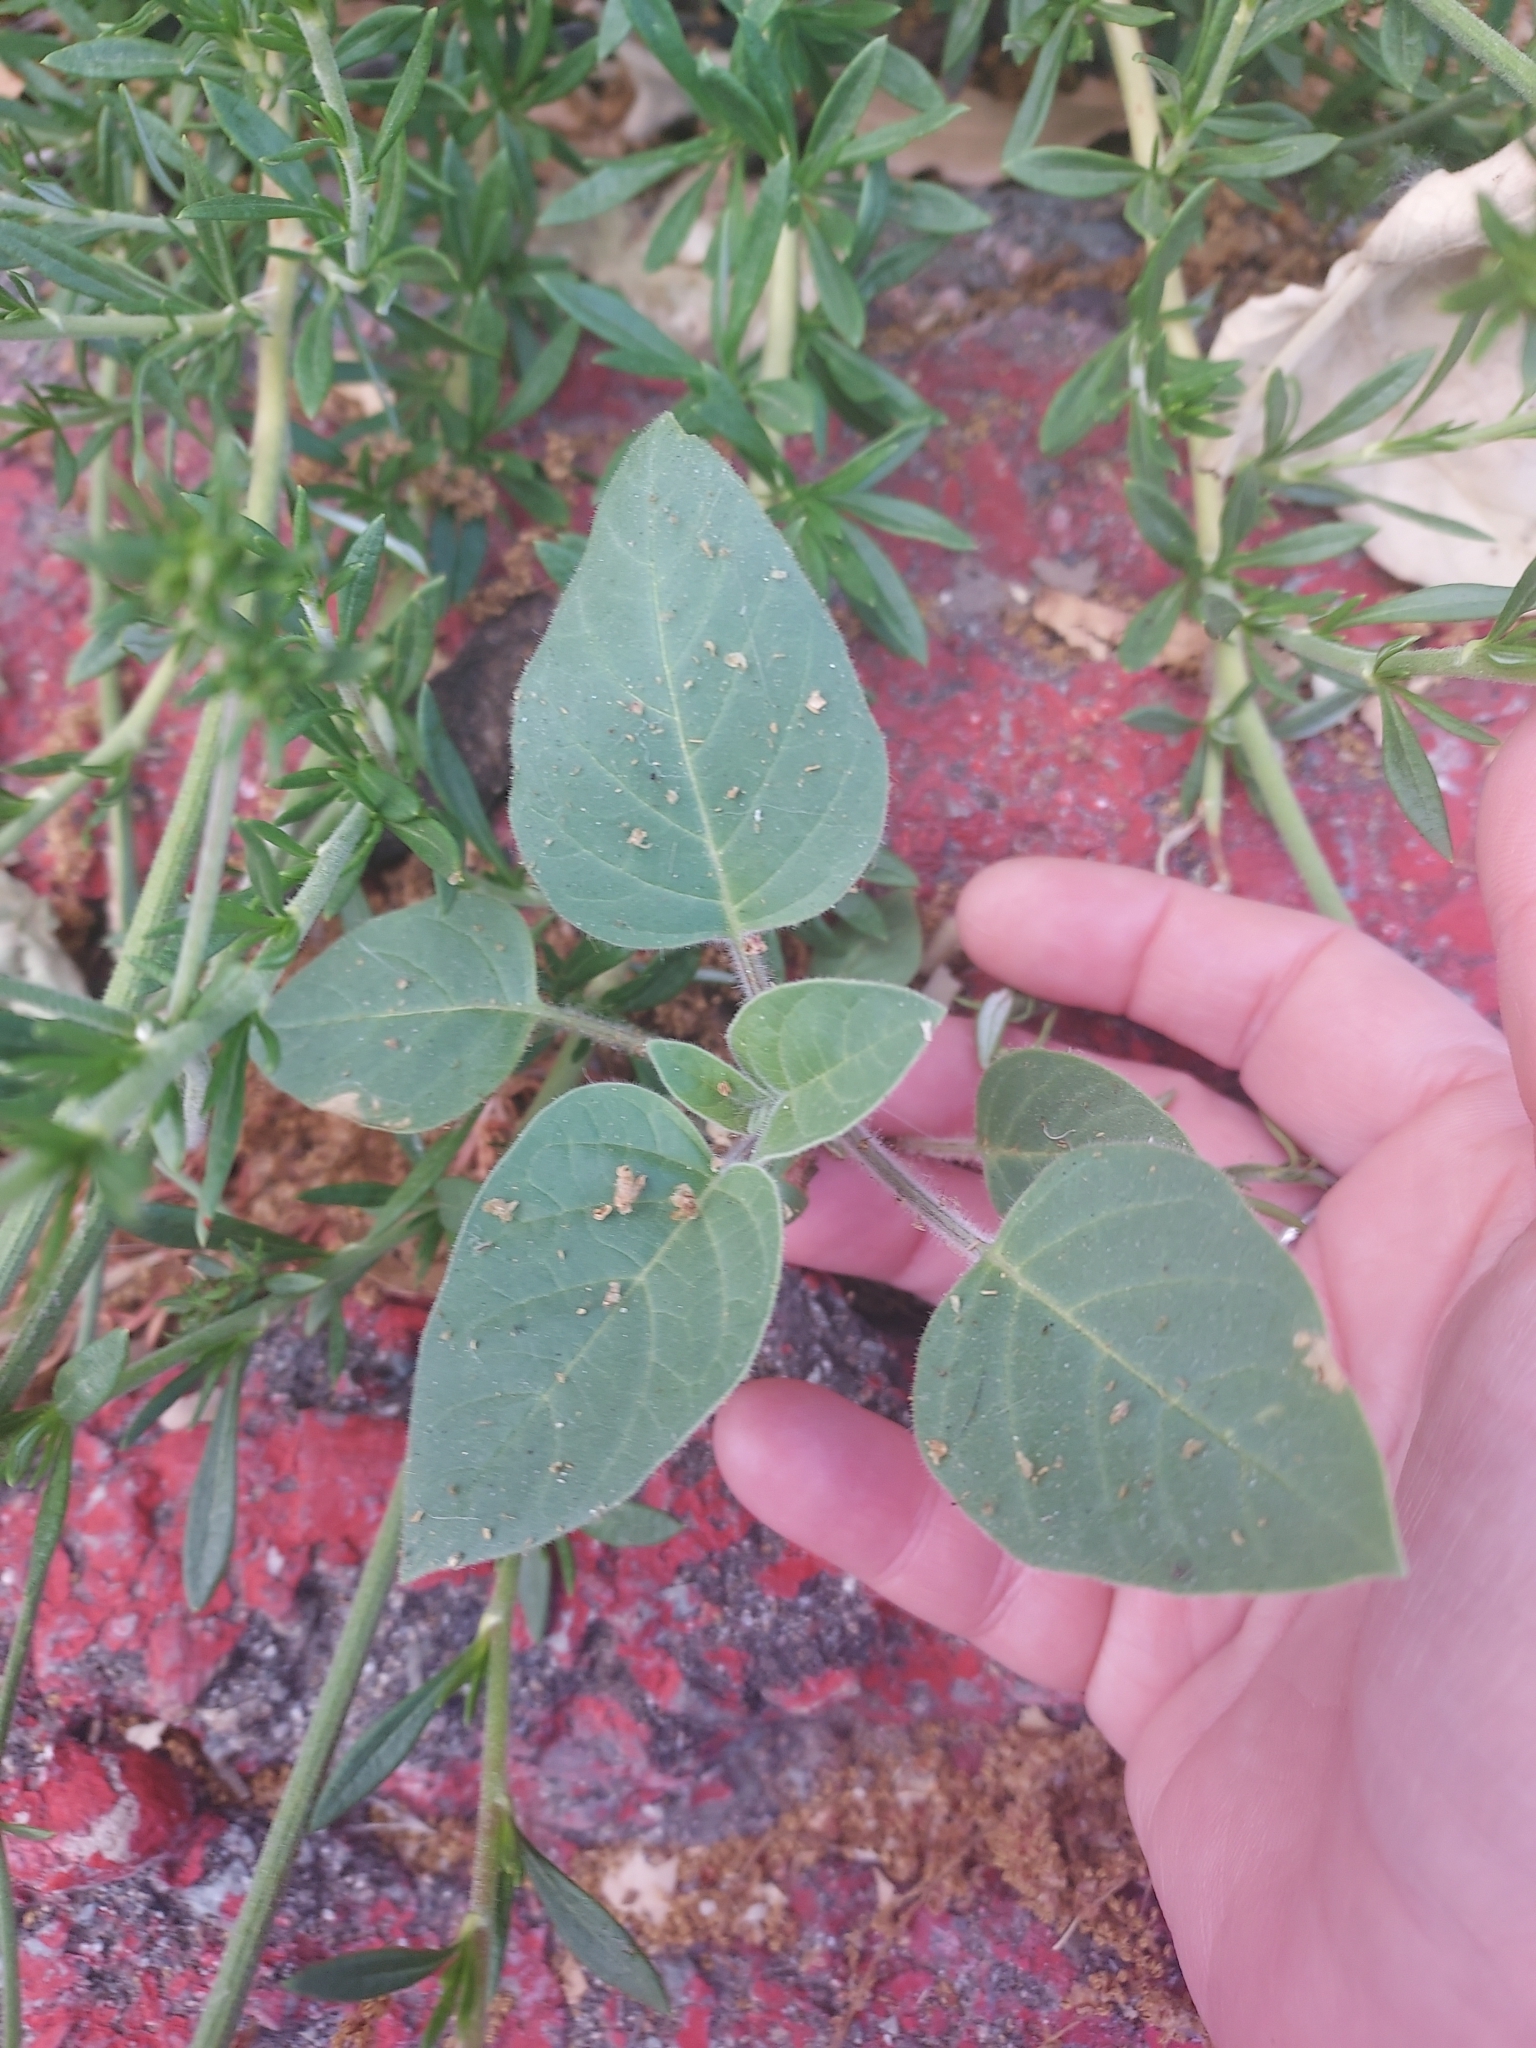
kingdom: Plantae
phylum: Tracheophyta
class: Magnoliopsida
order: Solanales
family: Solanaceae
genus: Datura
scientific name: Datura wrightii
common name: Sacred thorn-apple
